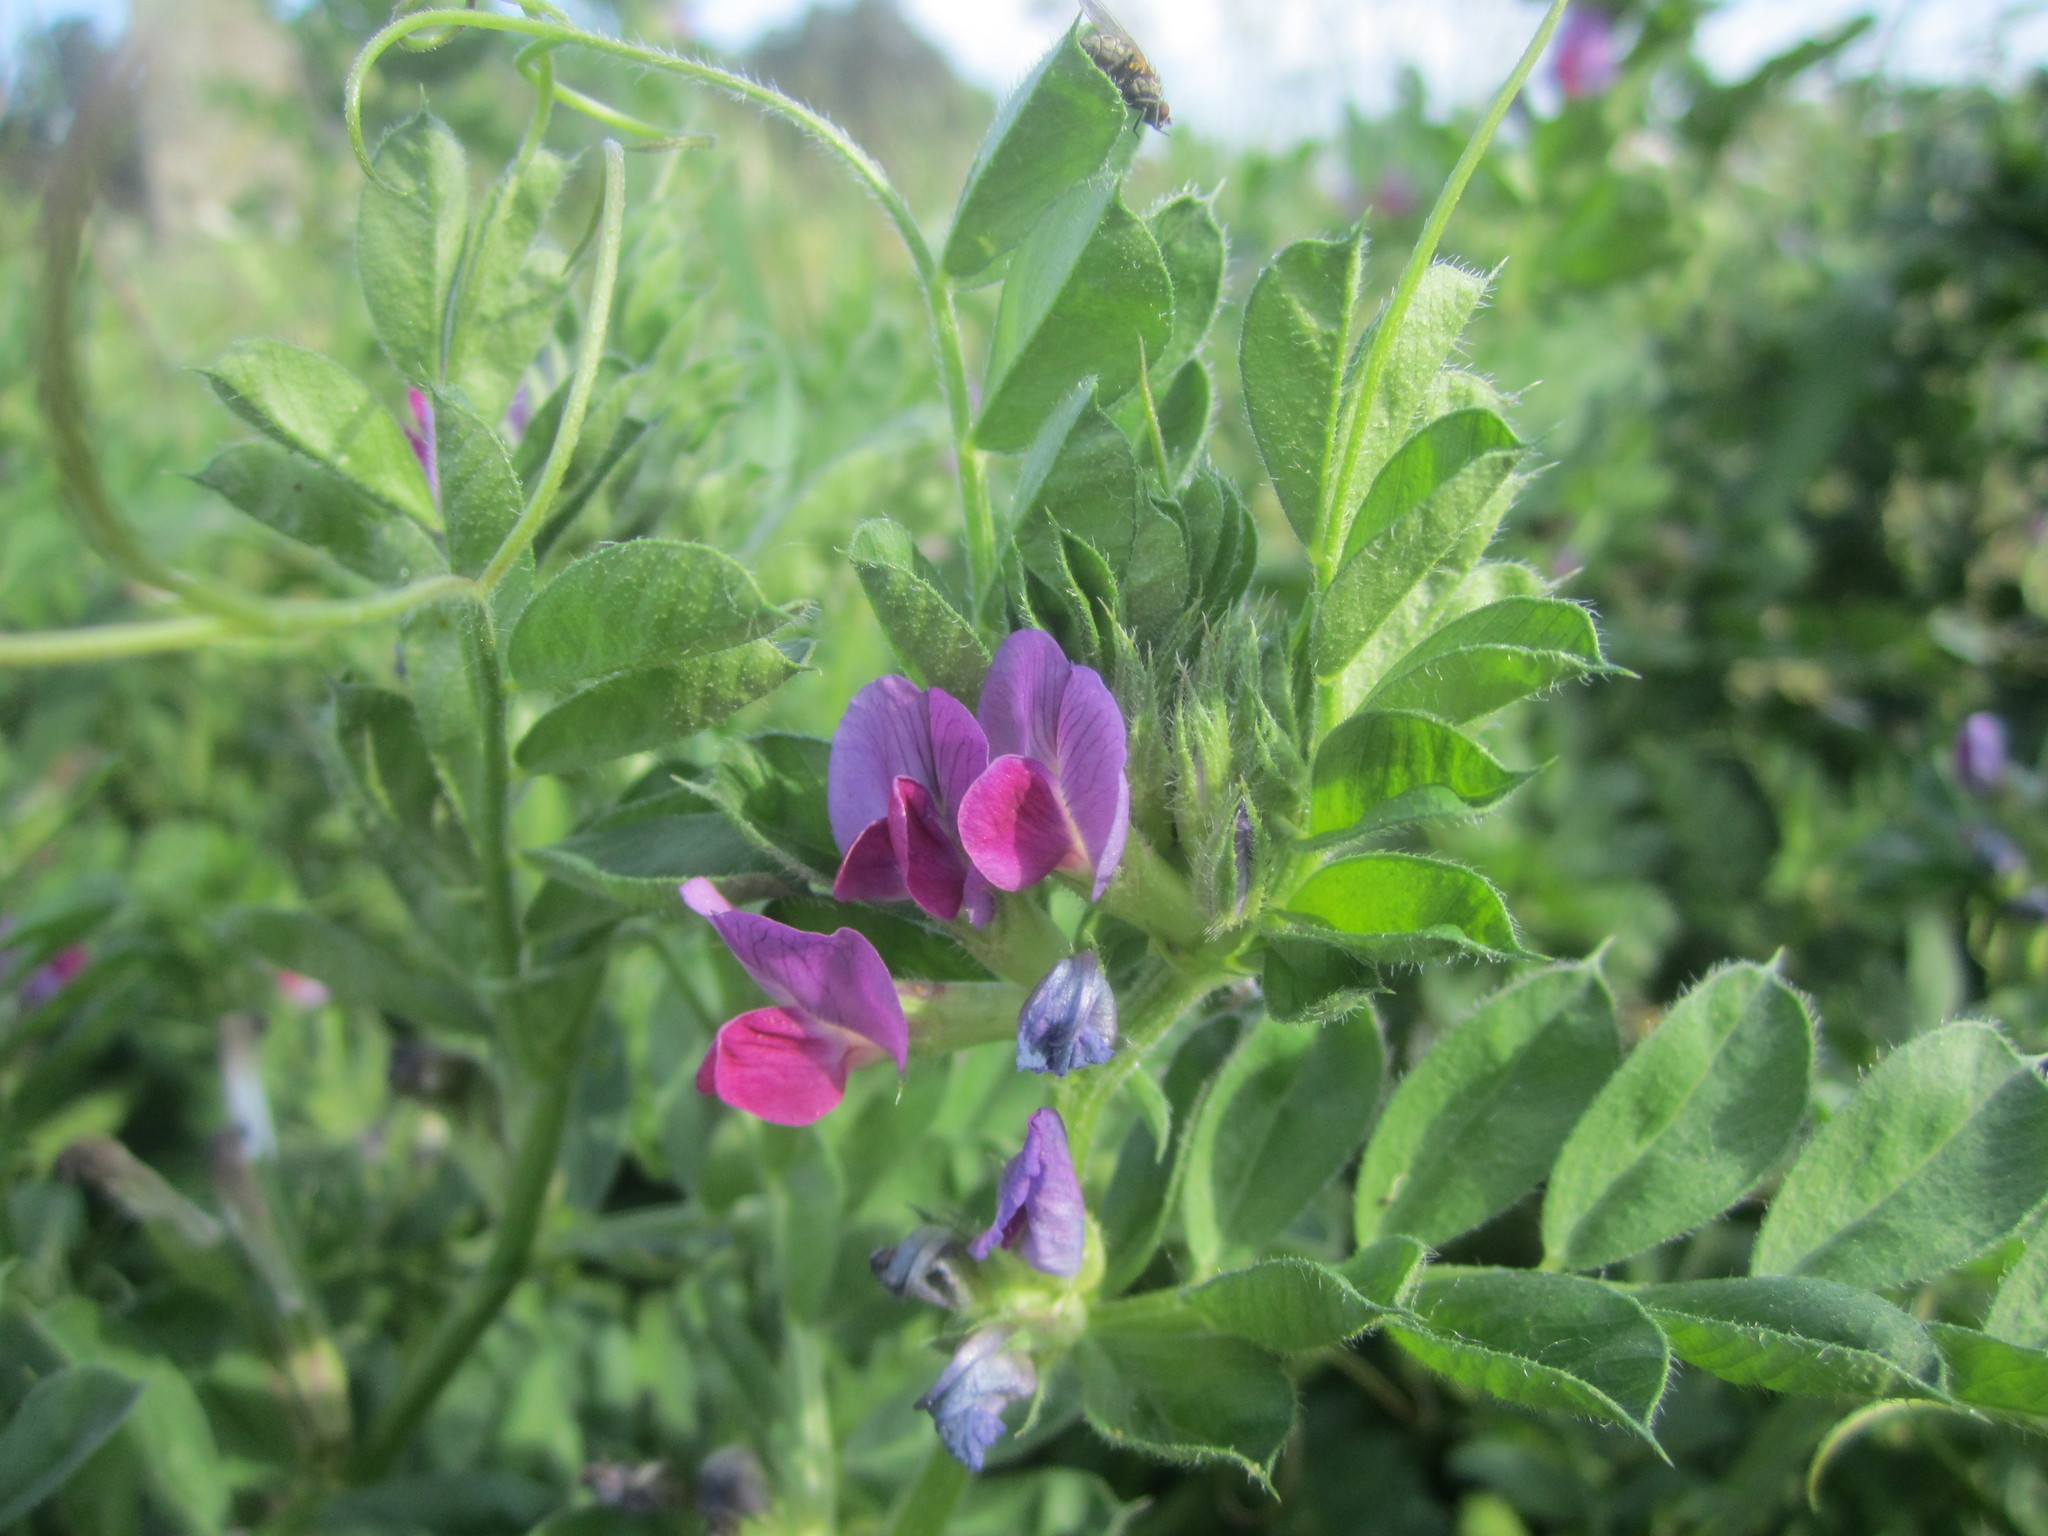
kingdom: Plantae
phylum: Tracheophyta
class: Magnoliopsida
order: Fabales
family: Fabaceae
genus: Vicia
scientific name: Vicia sativa
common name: Garden vetch
